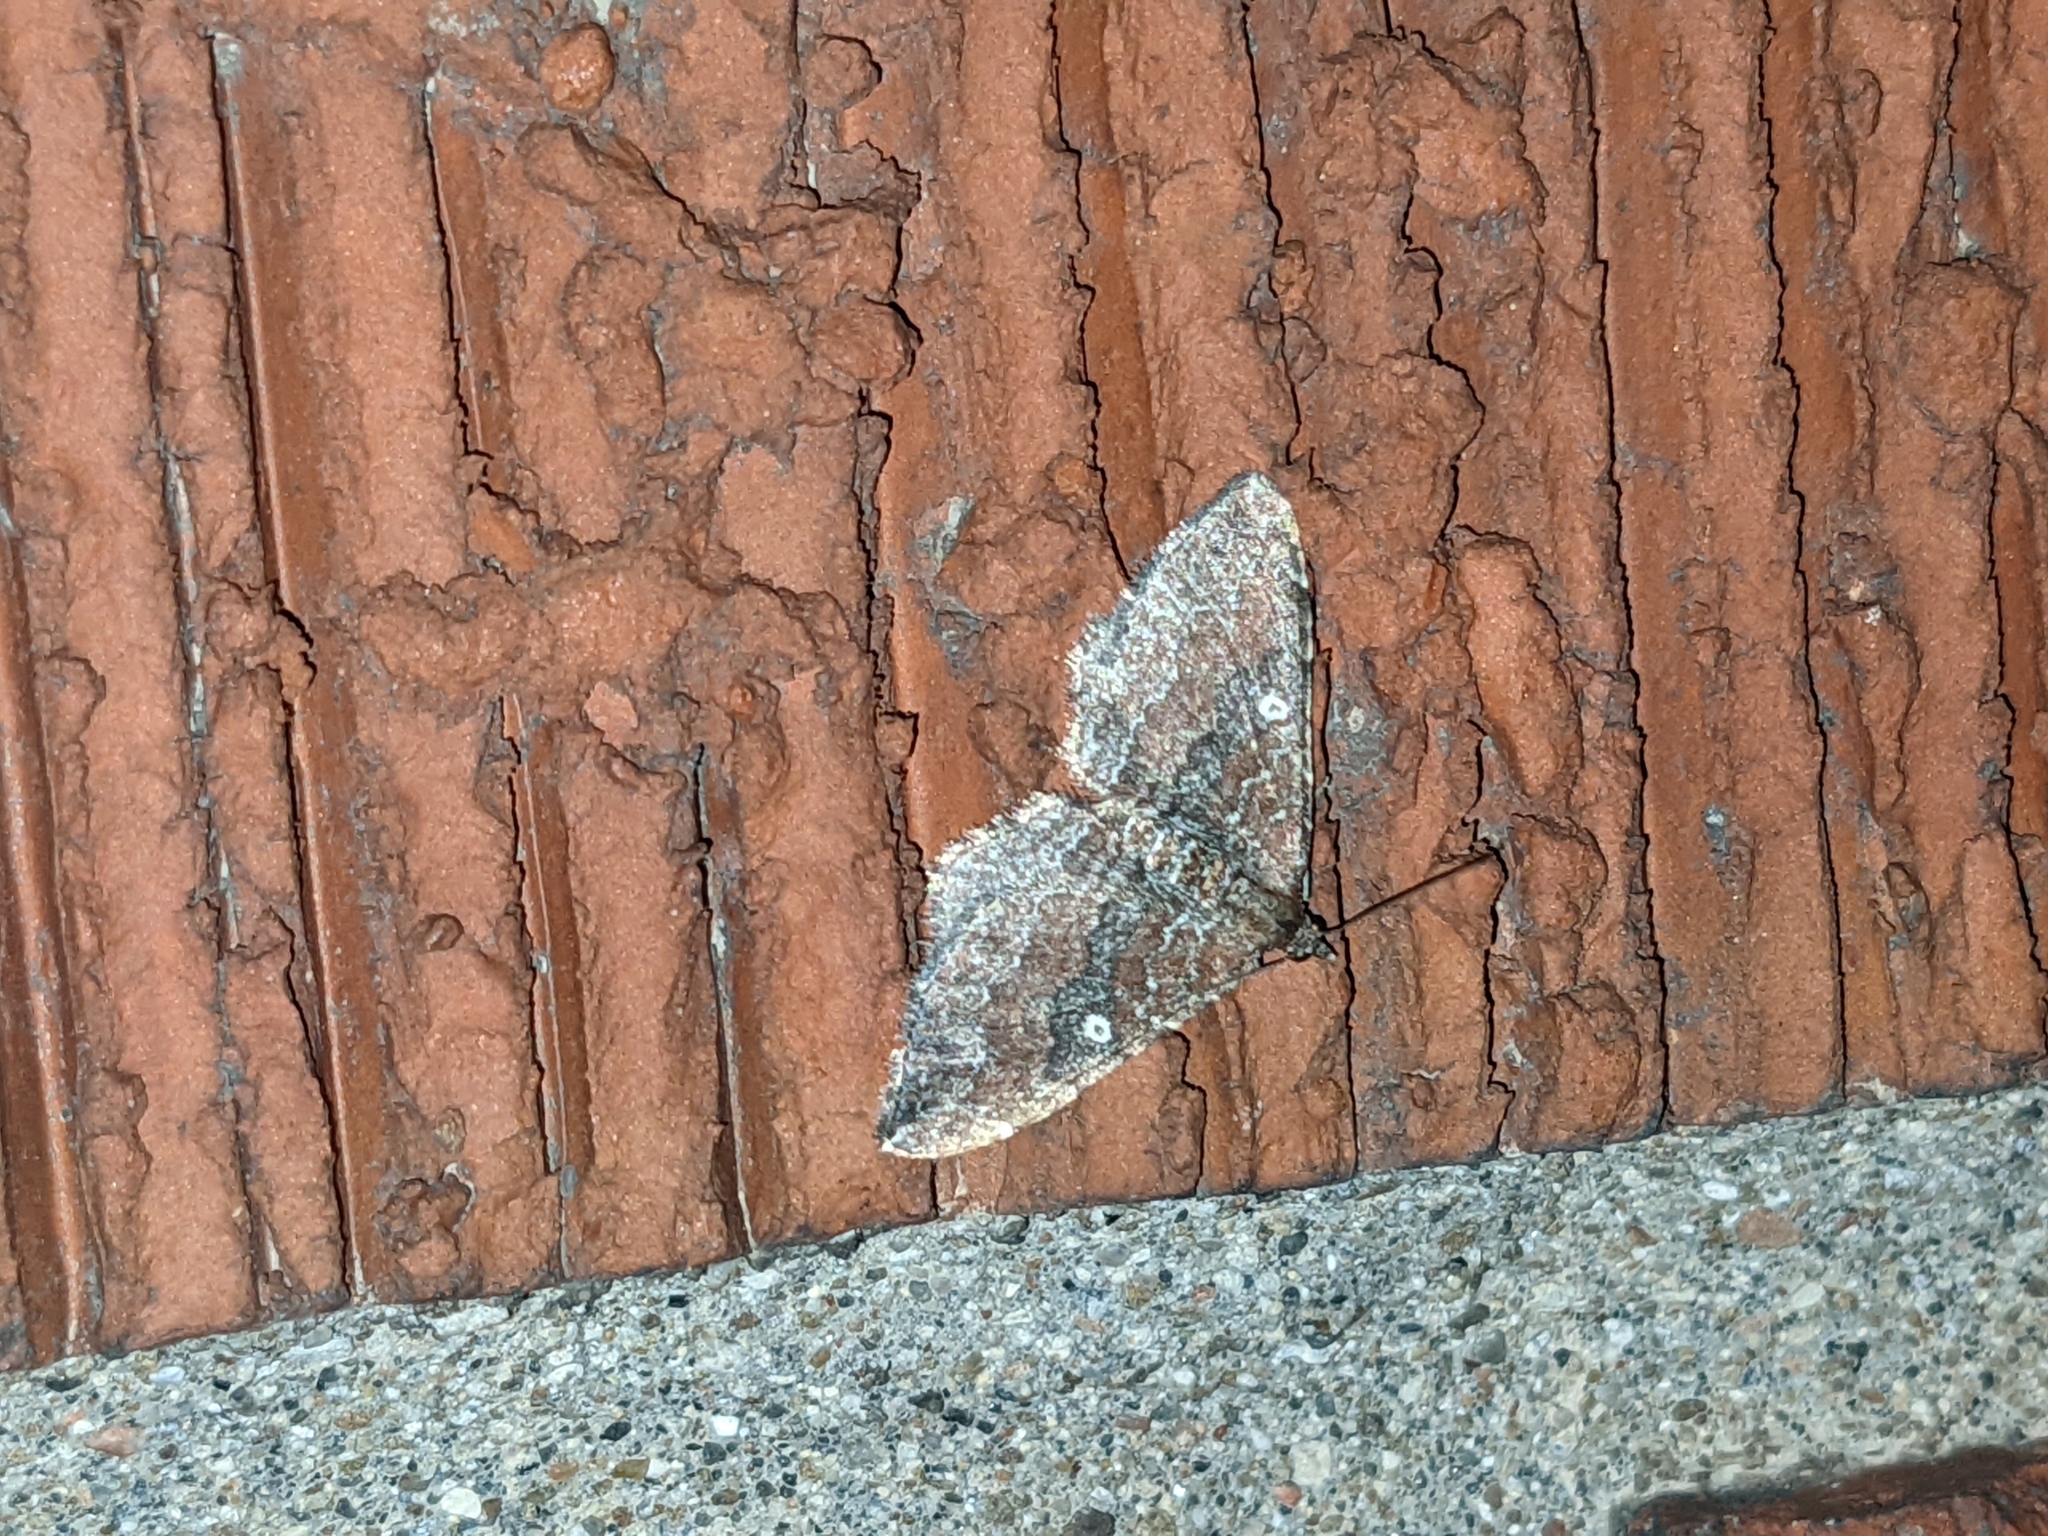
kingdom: Animalia
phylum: Arthropoda
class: Insecta
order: Lepidoptera
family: Geometridae
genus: Orthonama
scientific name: Orthonama obstipata
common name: The gem
